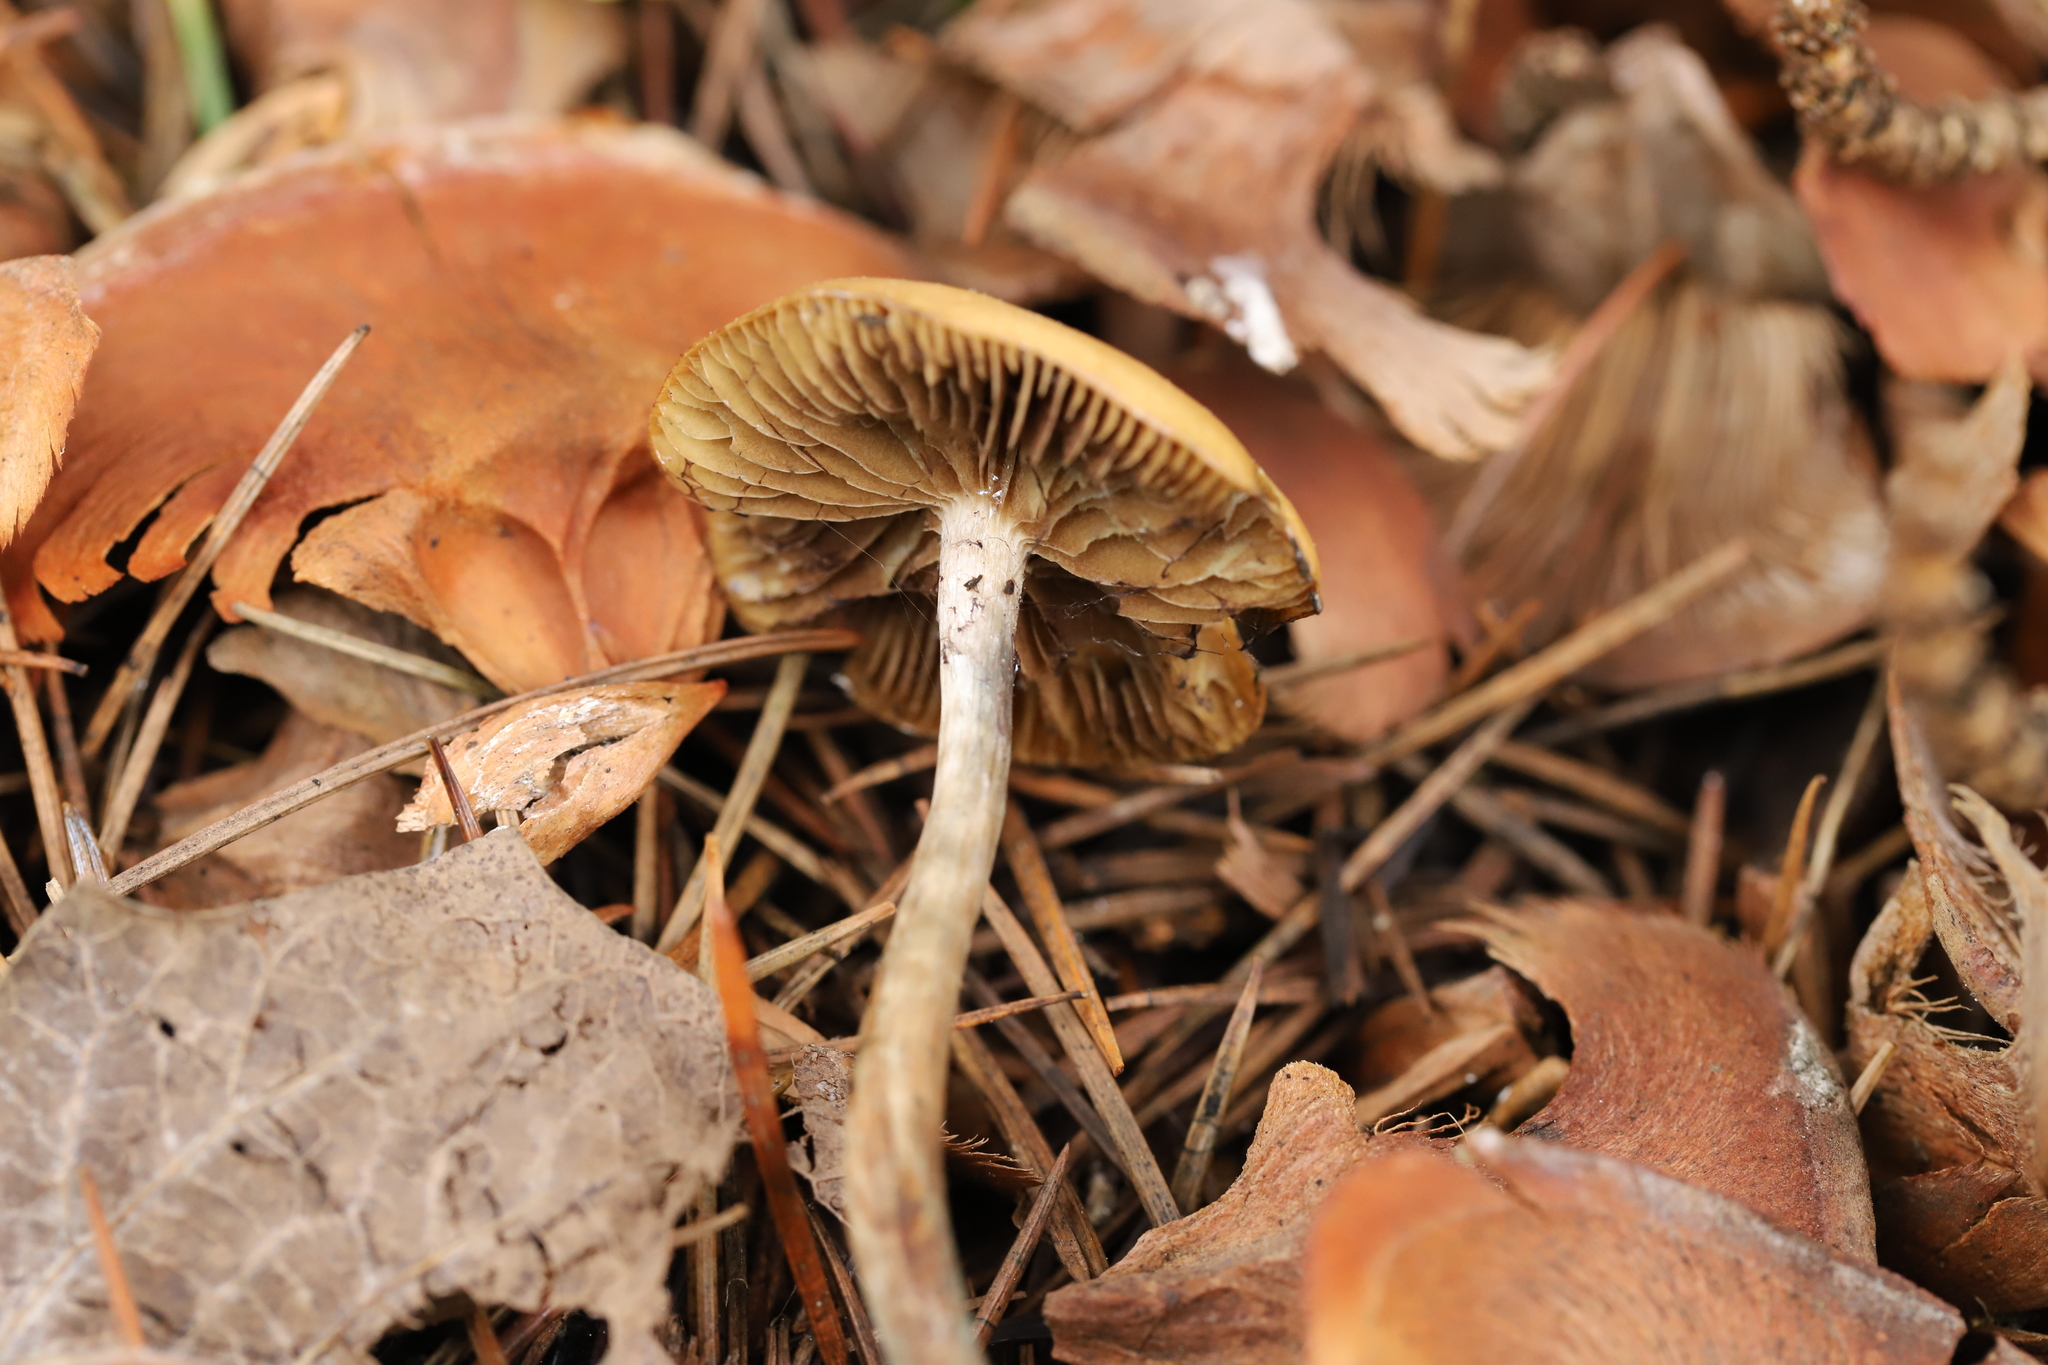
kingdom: Fungi
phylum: Basidiomycota
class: Agaricomycetes
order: Agaricales
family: Hymenogastraceae
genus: Psilocybe
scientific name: Psilocybe subaeruginosa
